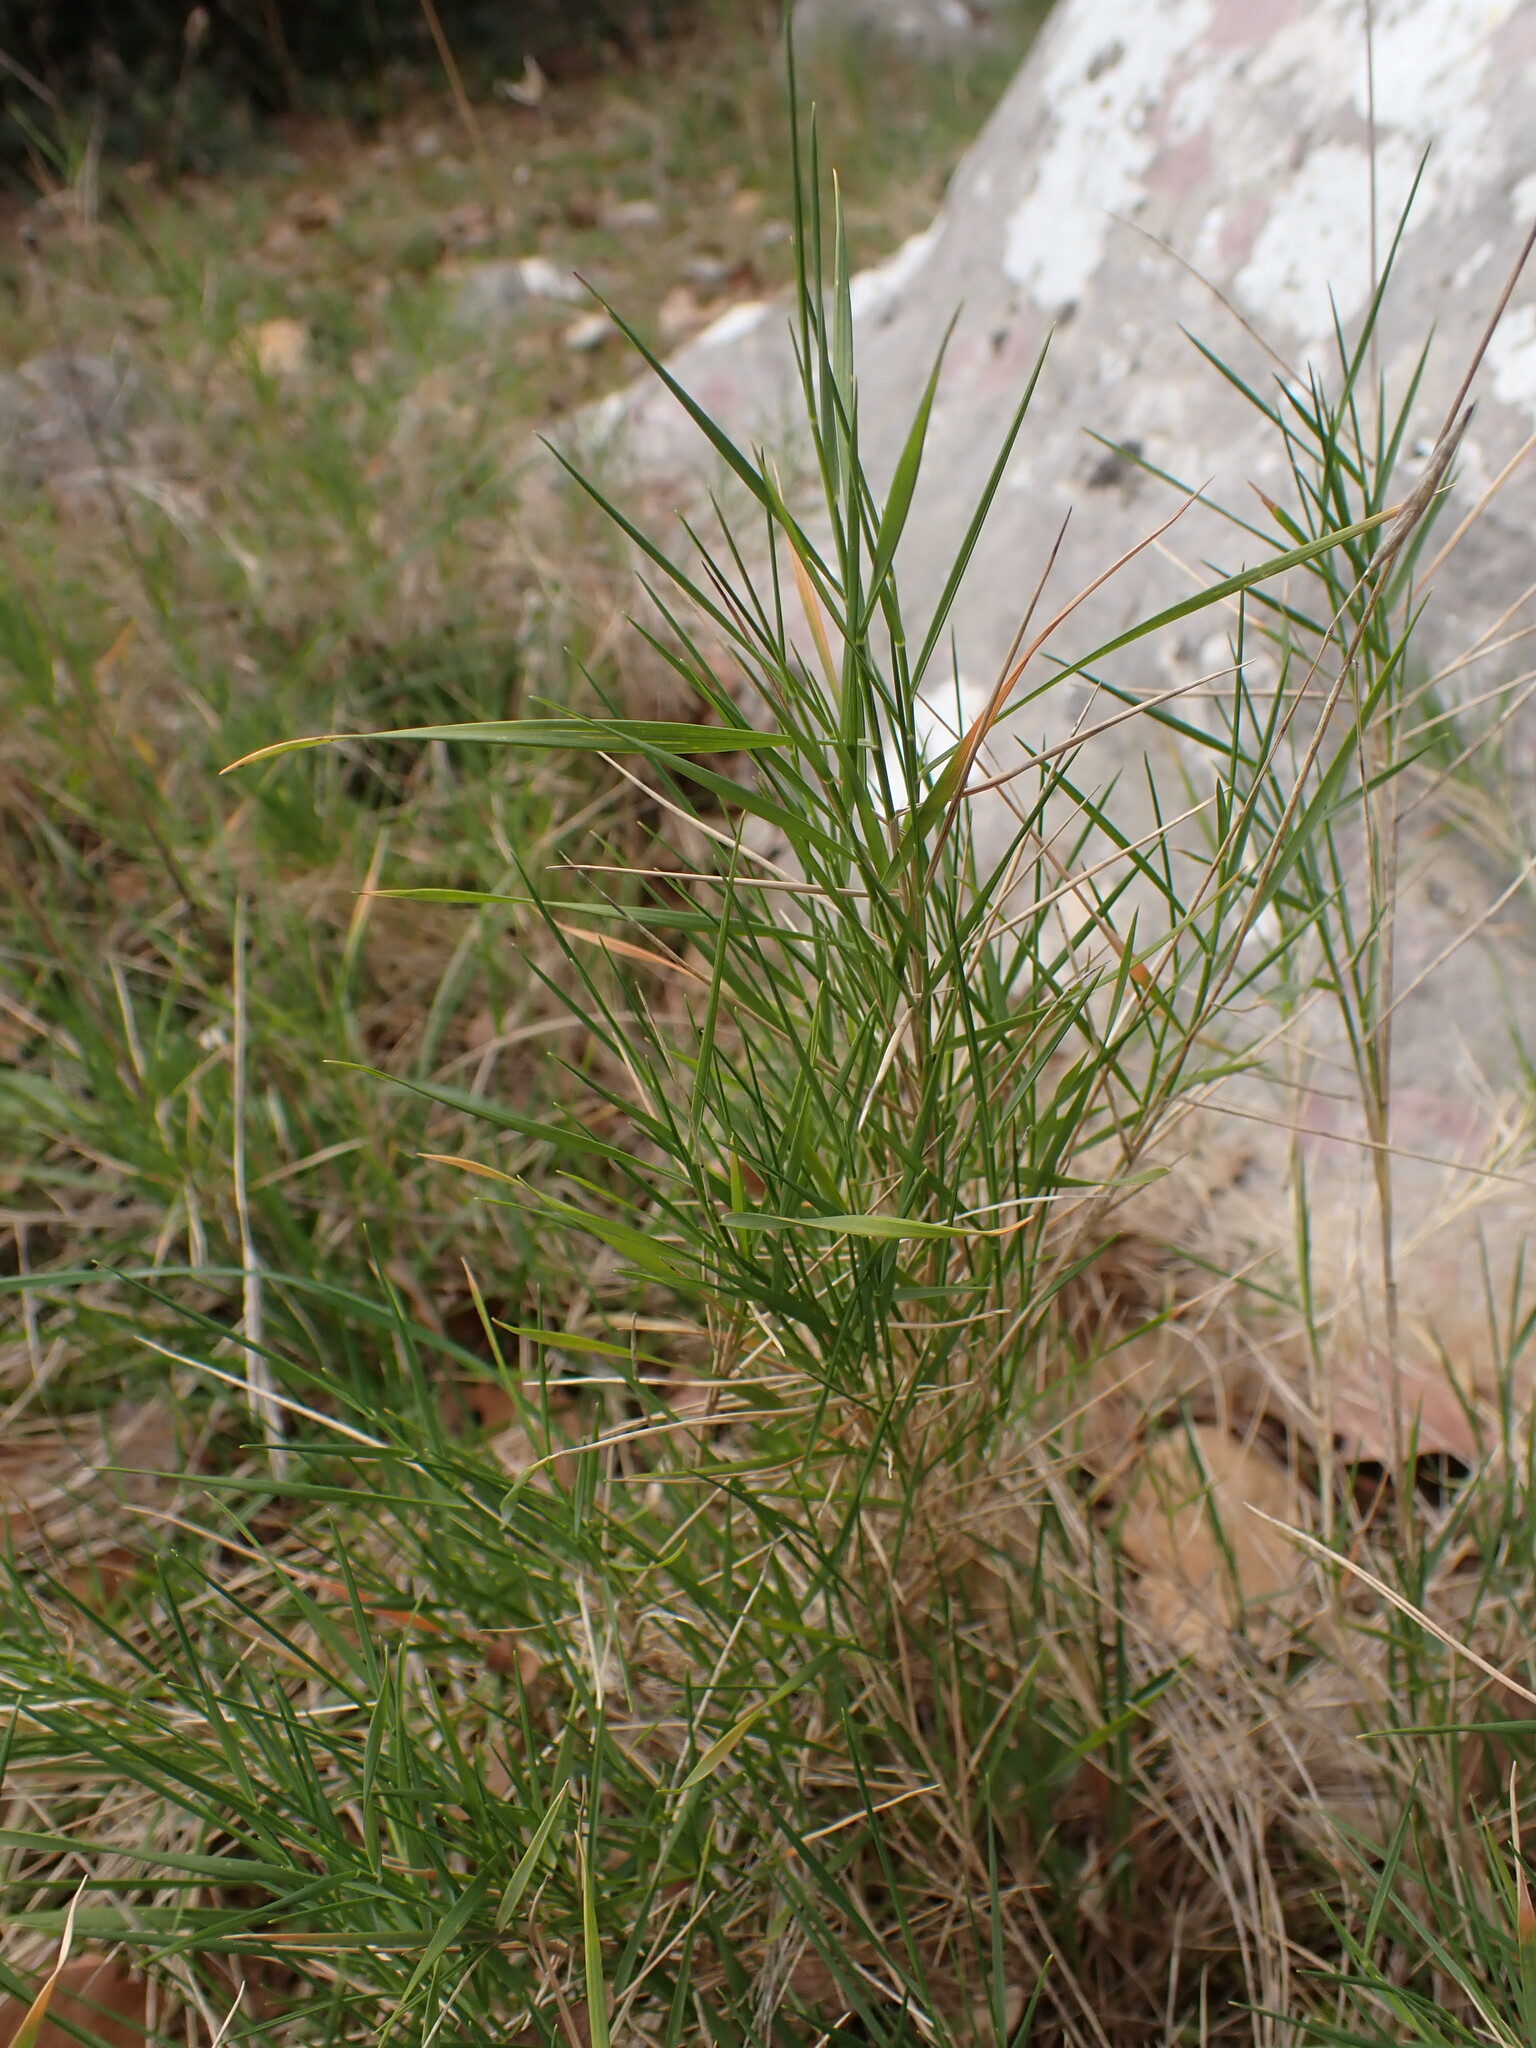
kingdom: Plantae
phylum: Tracheophyta
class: Liliopsida
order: Poales
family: Poaceae
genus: Brachypodium
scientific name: Brachypodium retusum
